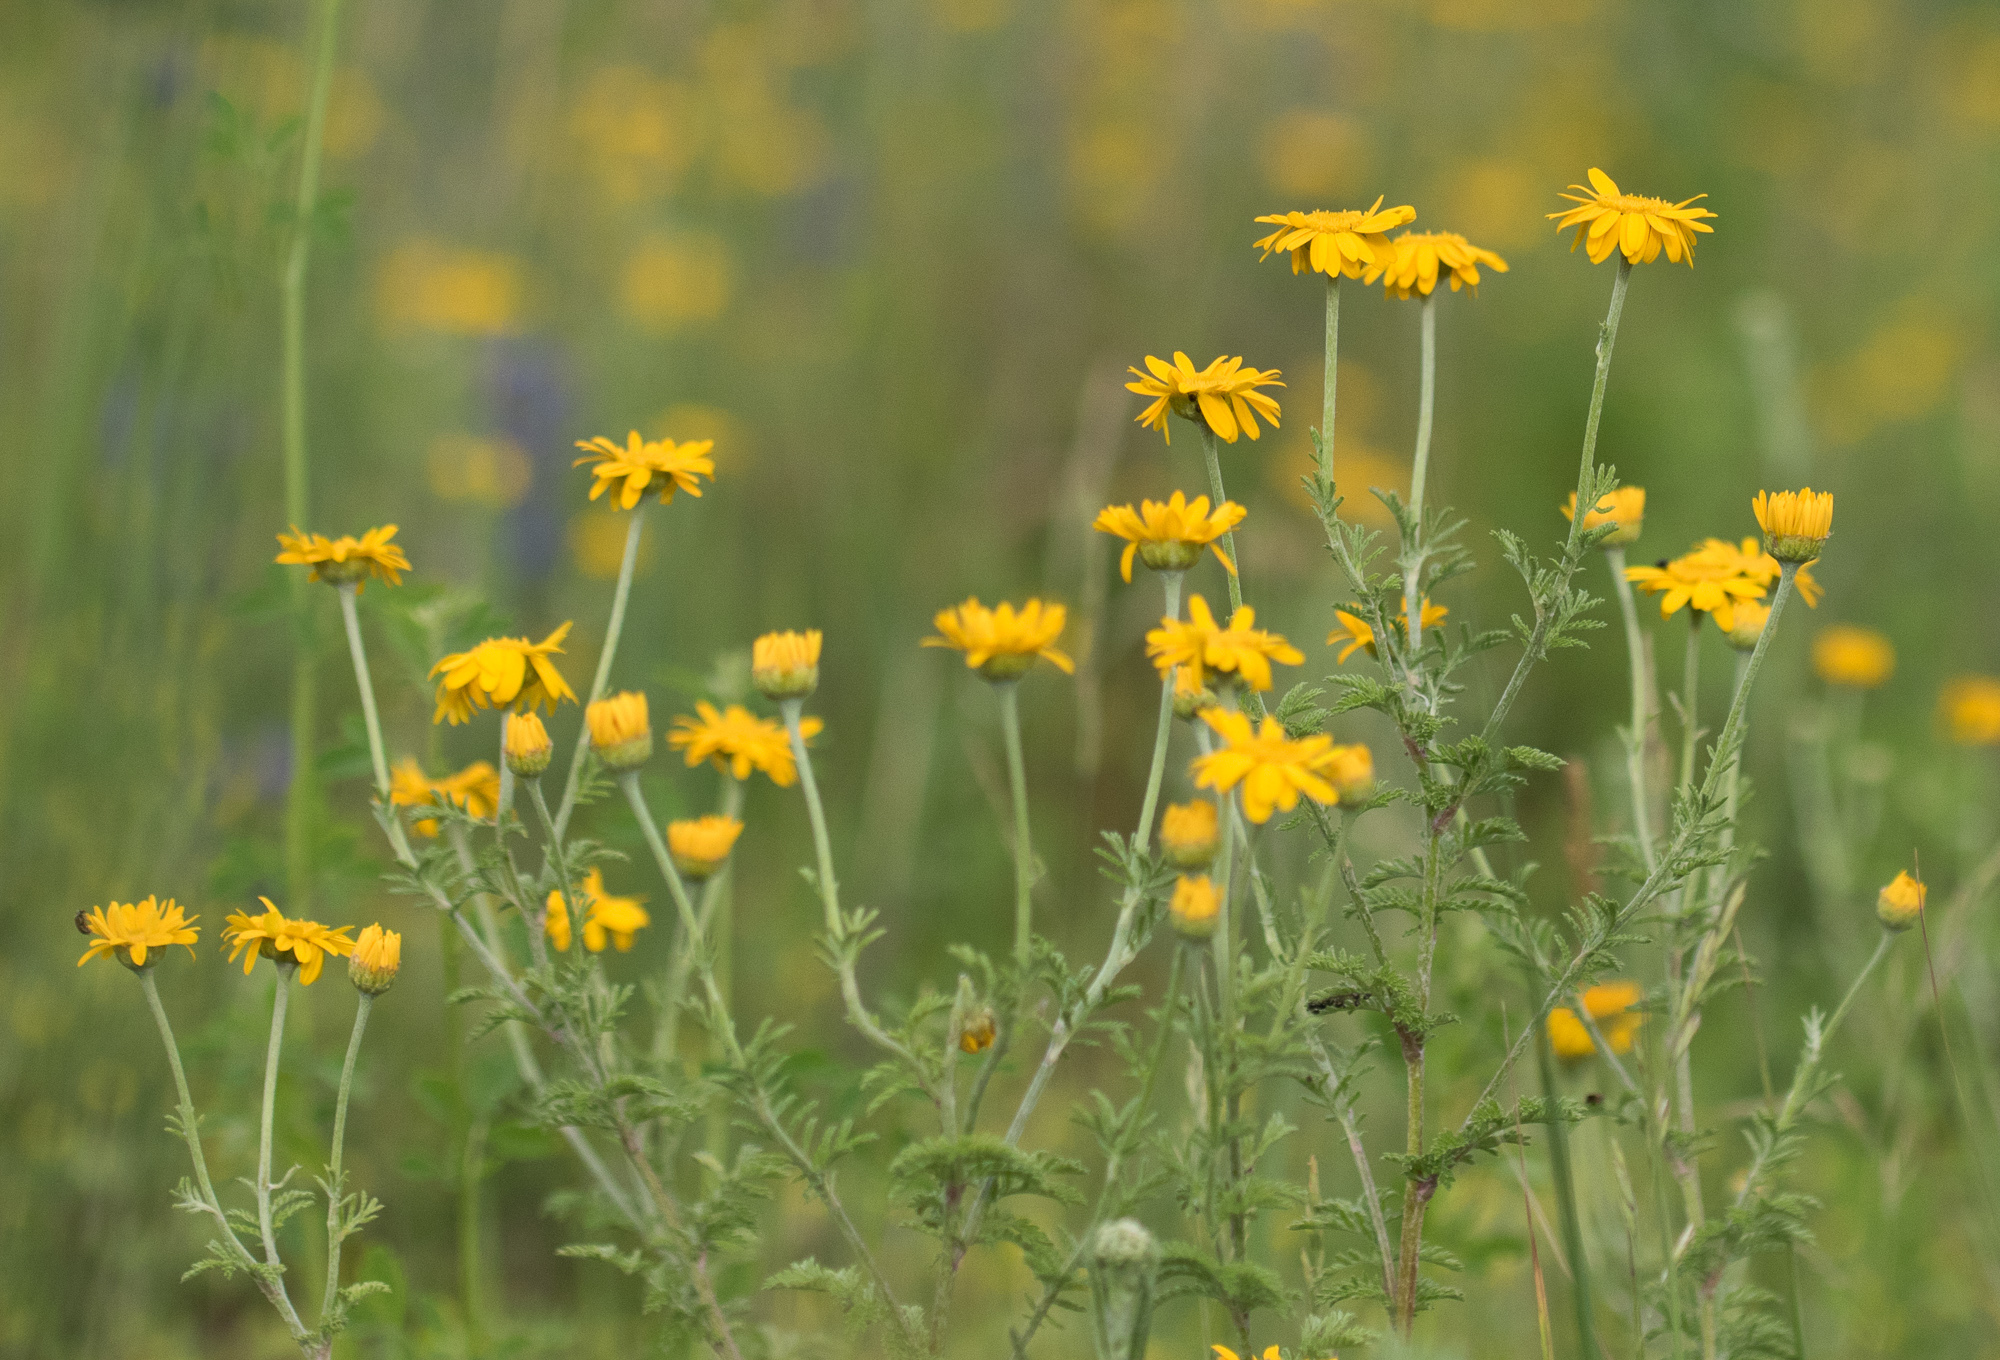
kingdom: Plantae
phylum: Tracheophyta
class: Magnoliopsida
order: Asterales
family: Asteraceae
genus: Cota
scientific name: Cota tinctoria
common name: Golden chamomile
